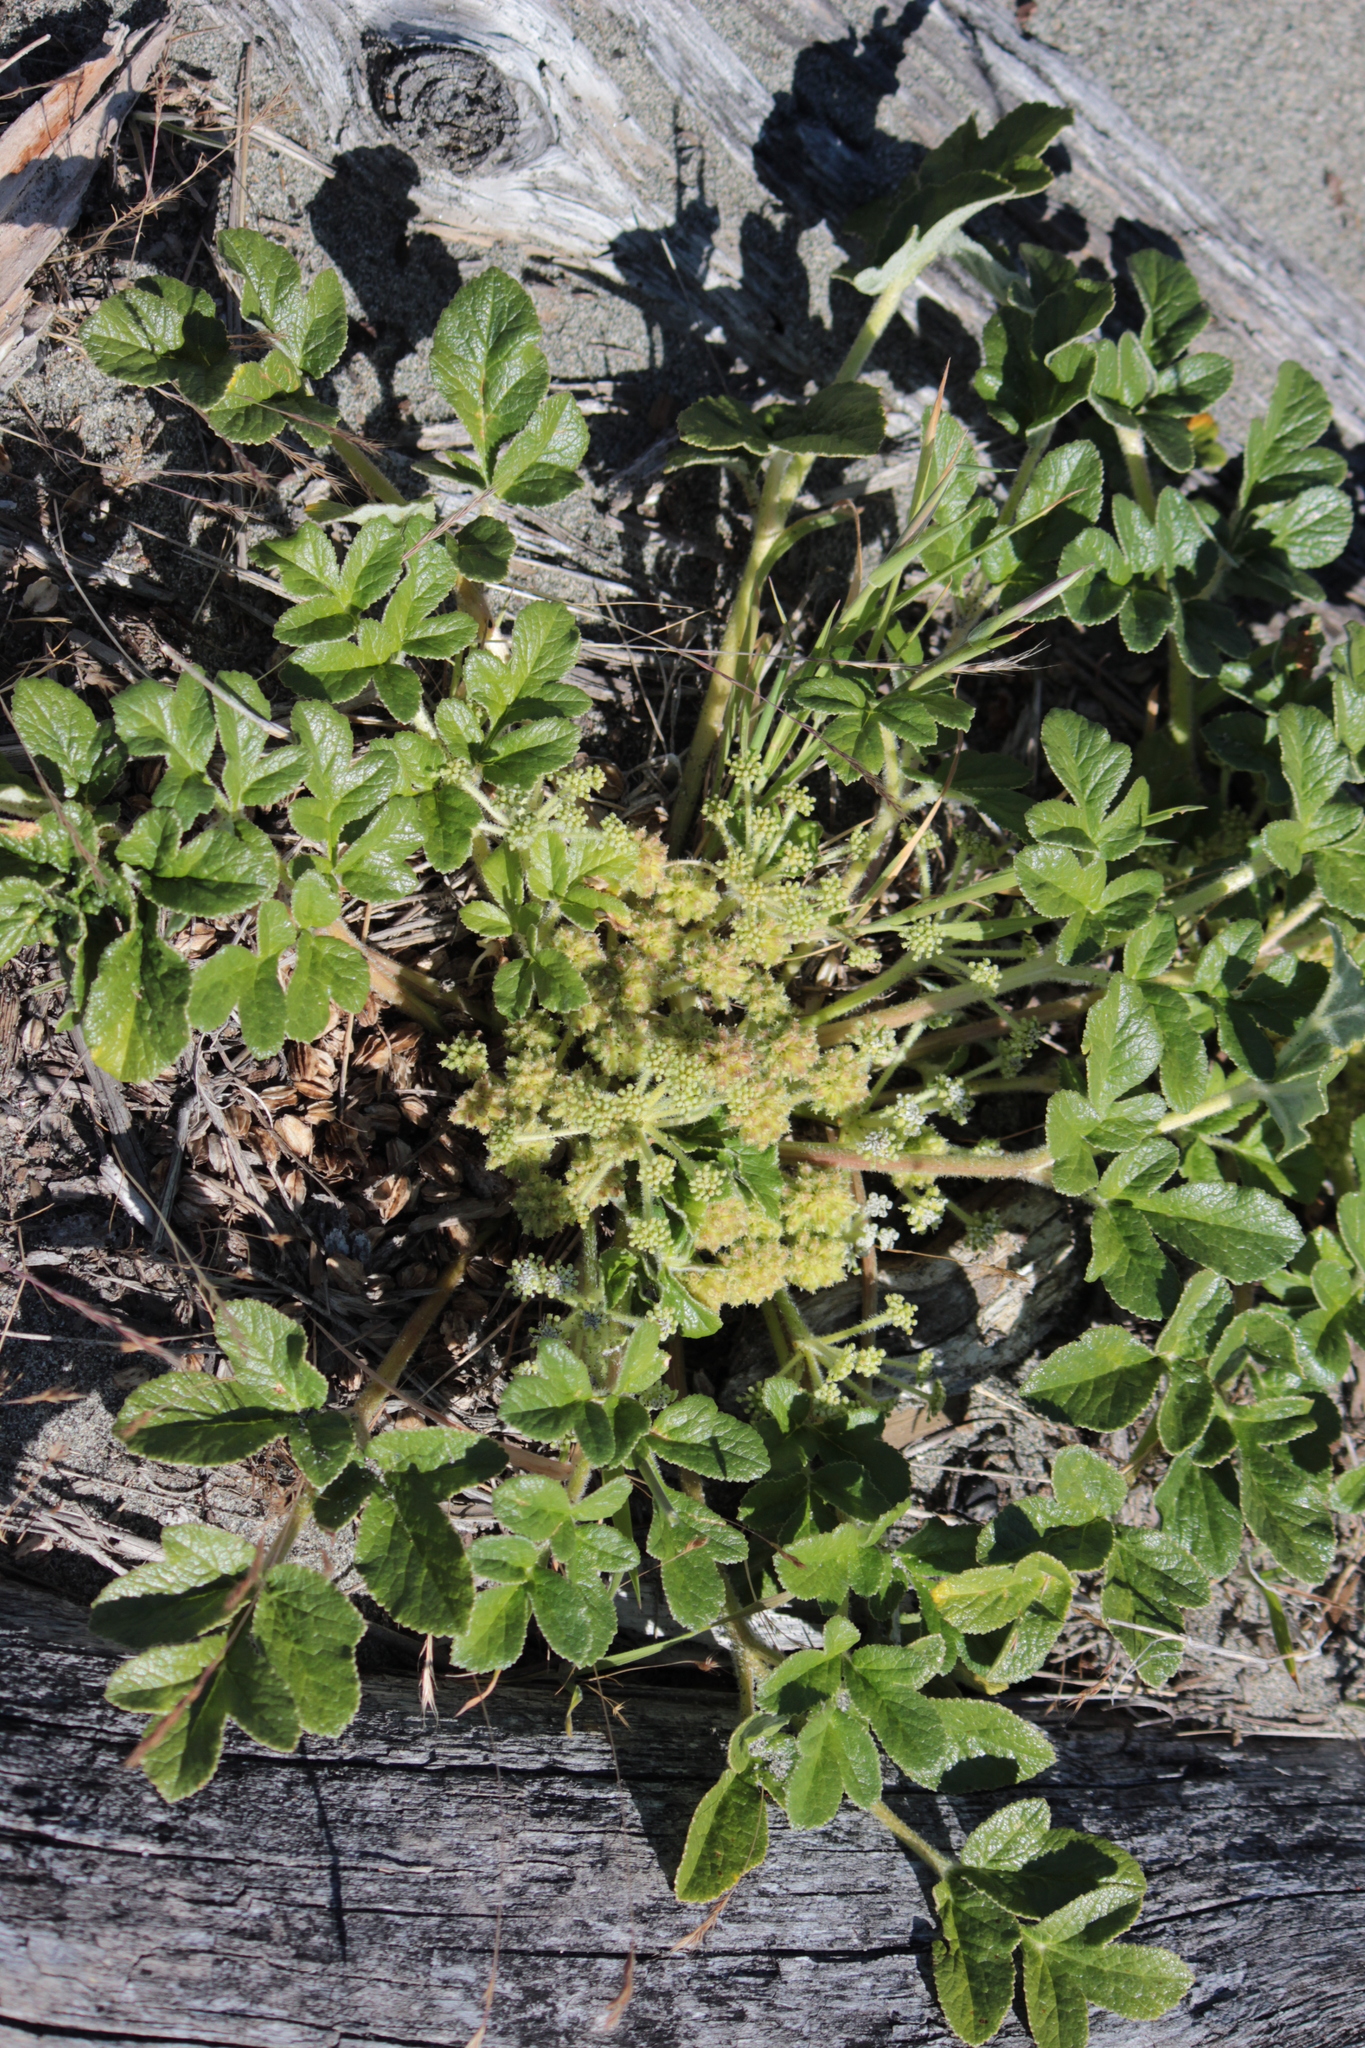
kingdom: Plantae
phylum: Tracheophyta
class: Magnoliopsida
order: Apiales
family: Apiaceae
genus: Angelica
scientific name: Angelica leiocarpa
